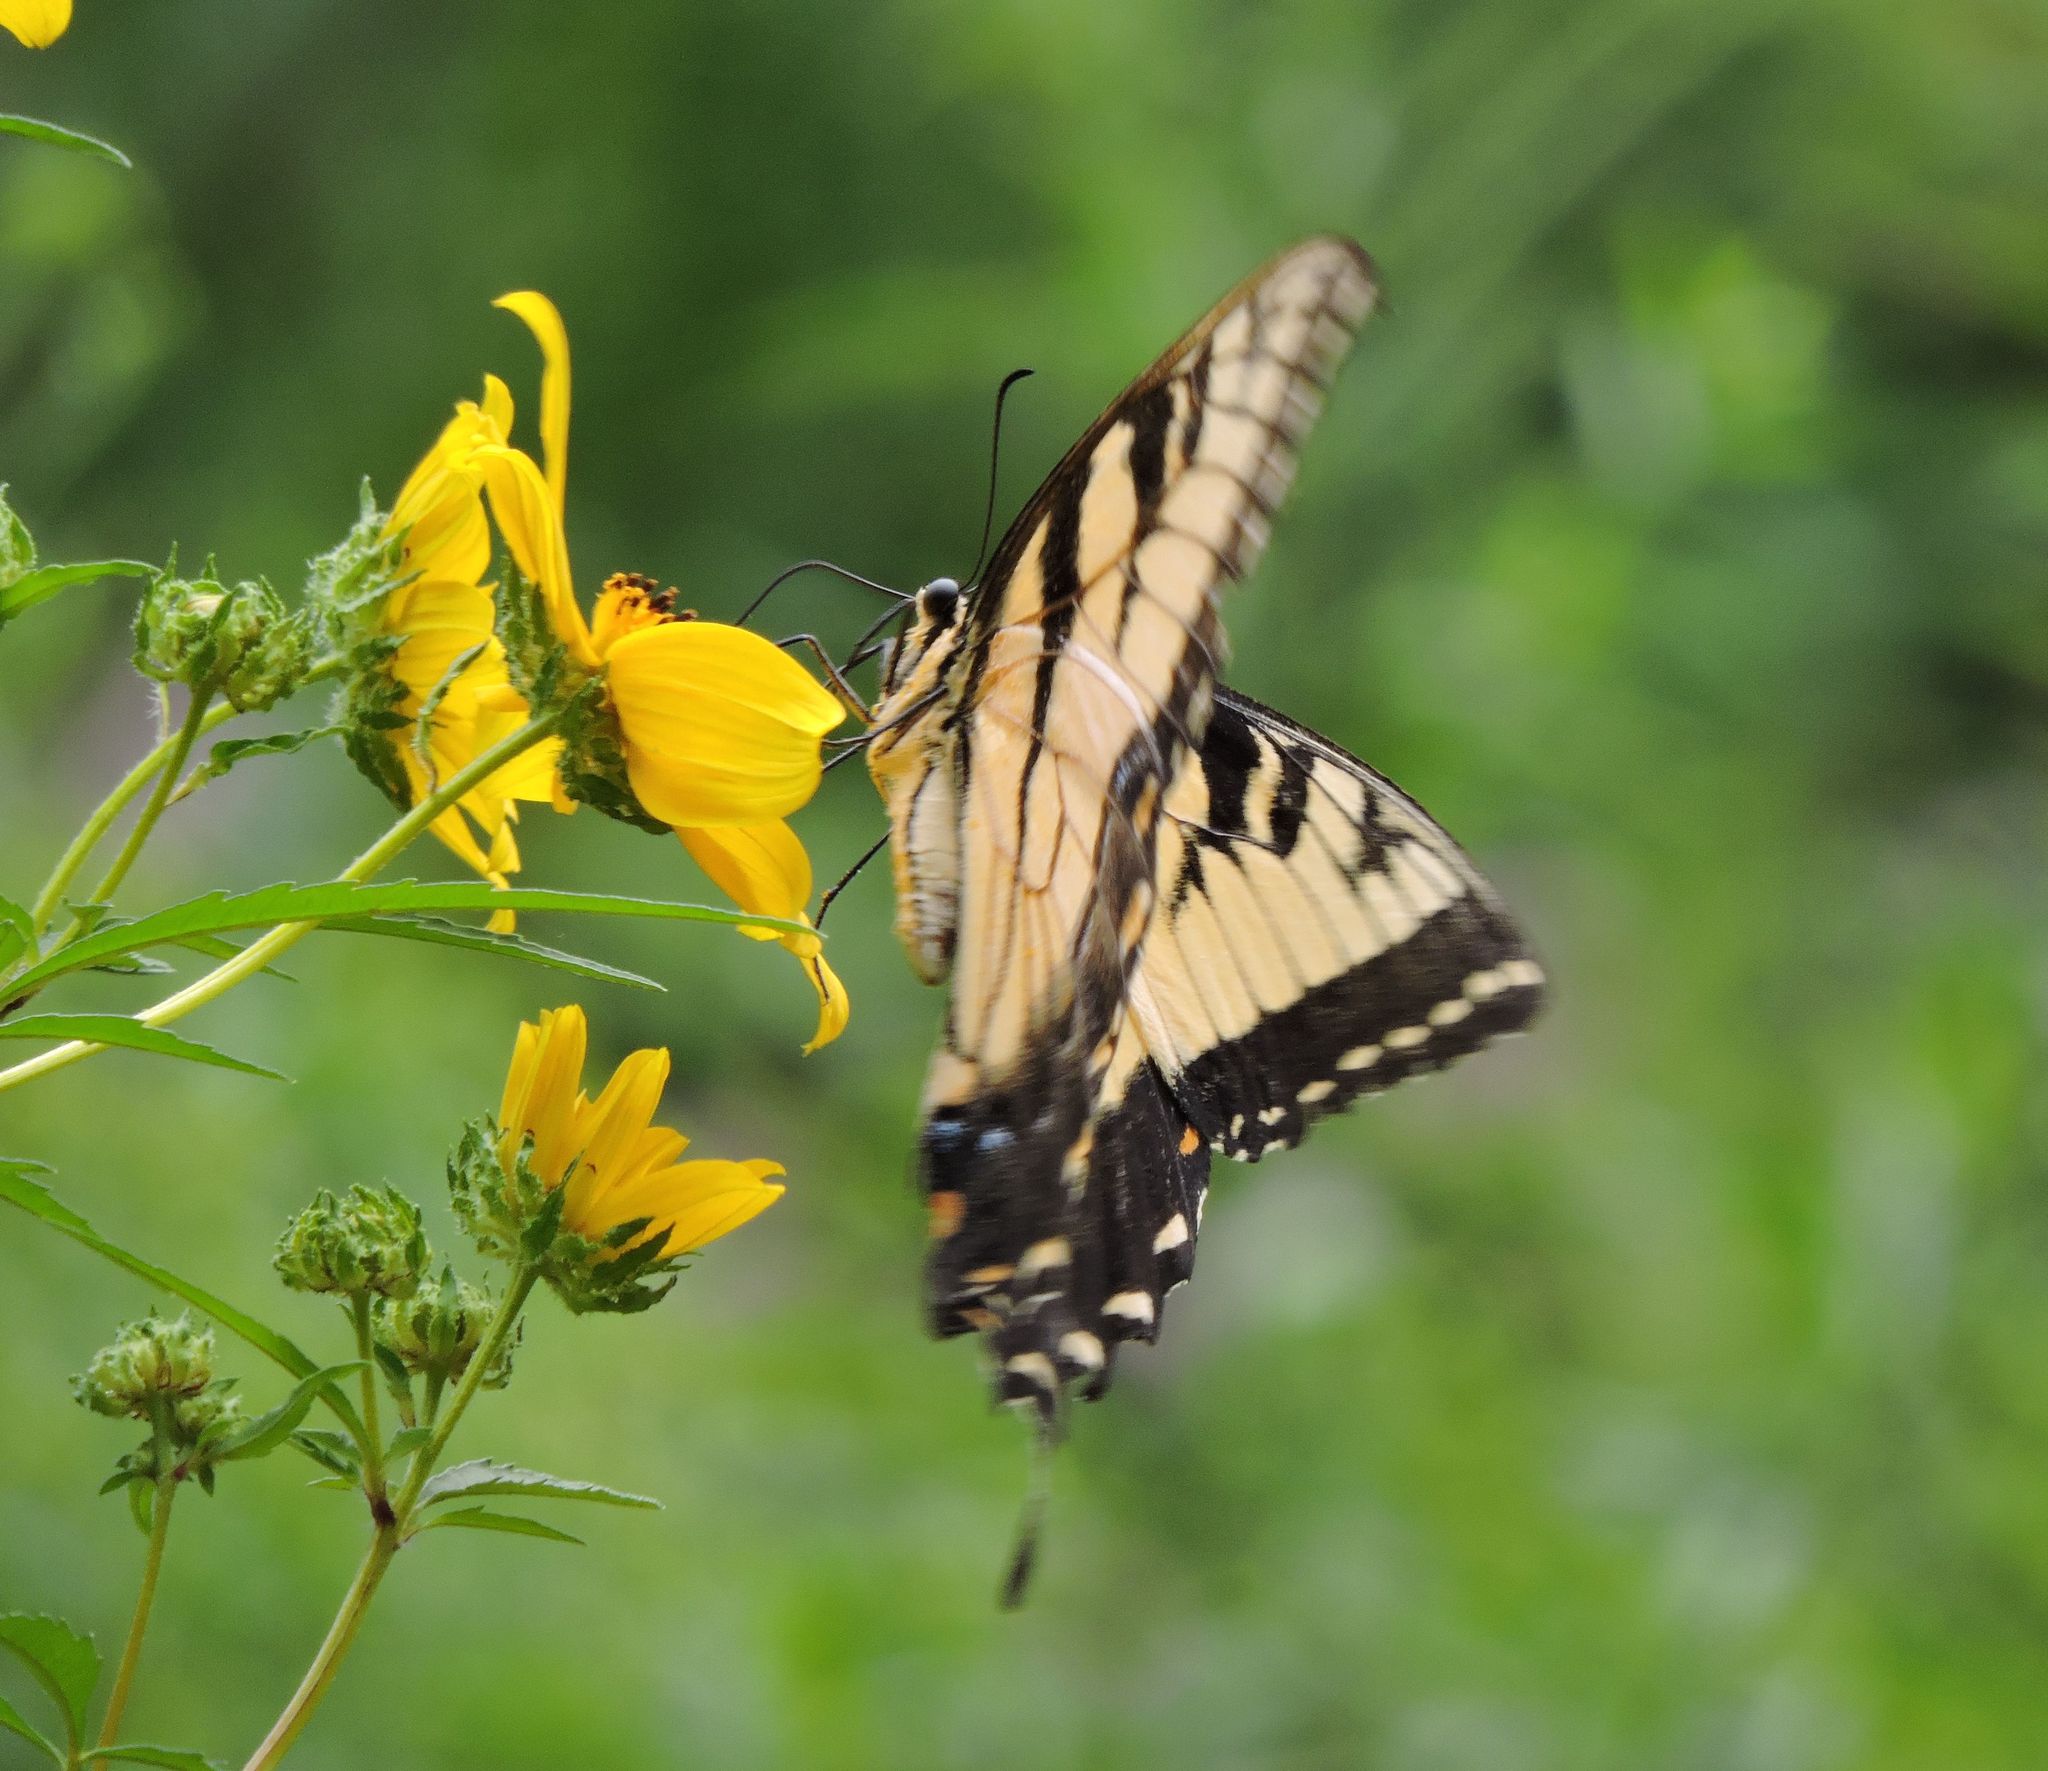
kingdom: Animalia
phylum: Arthropoda
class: Insecta
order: Lepidoptera
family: Papilionidae
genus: Papilio
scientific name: Papilio glaucus
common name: Tiger swallowtail
